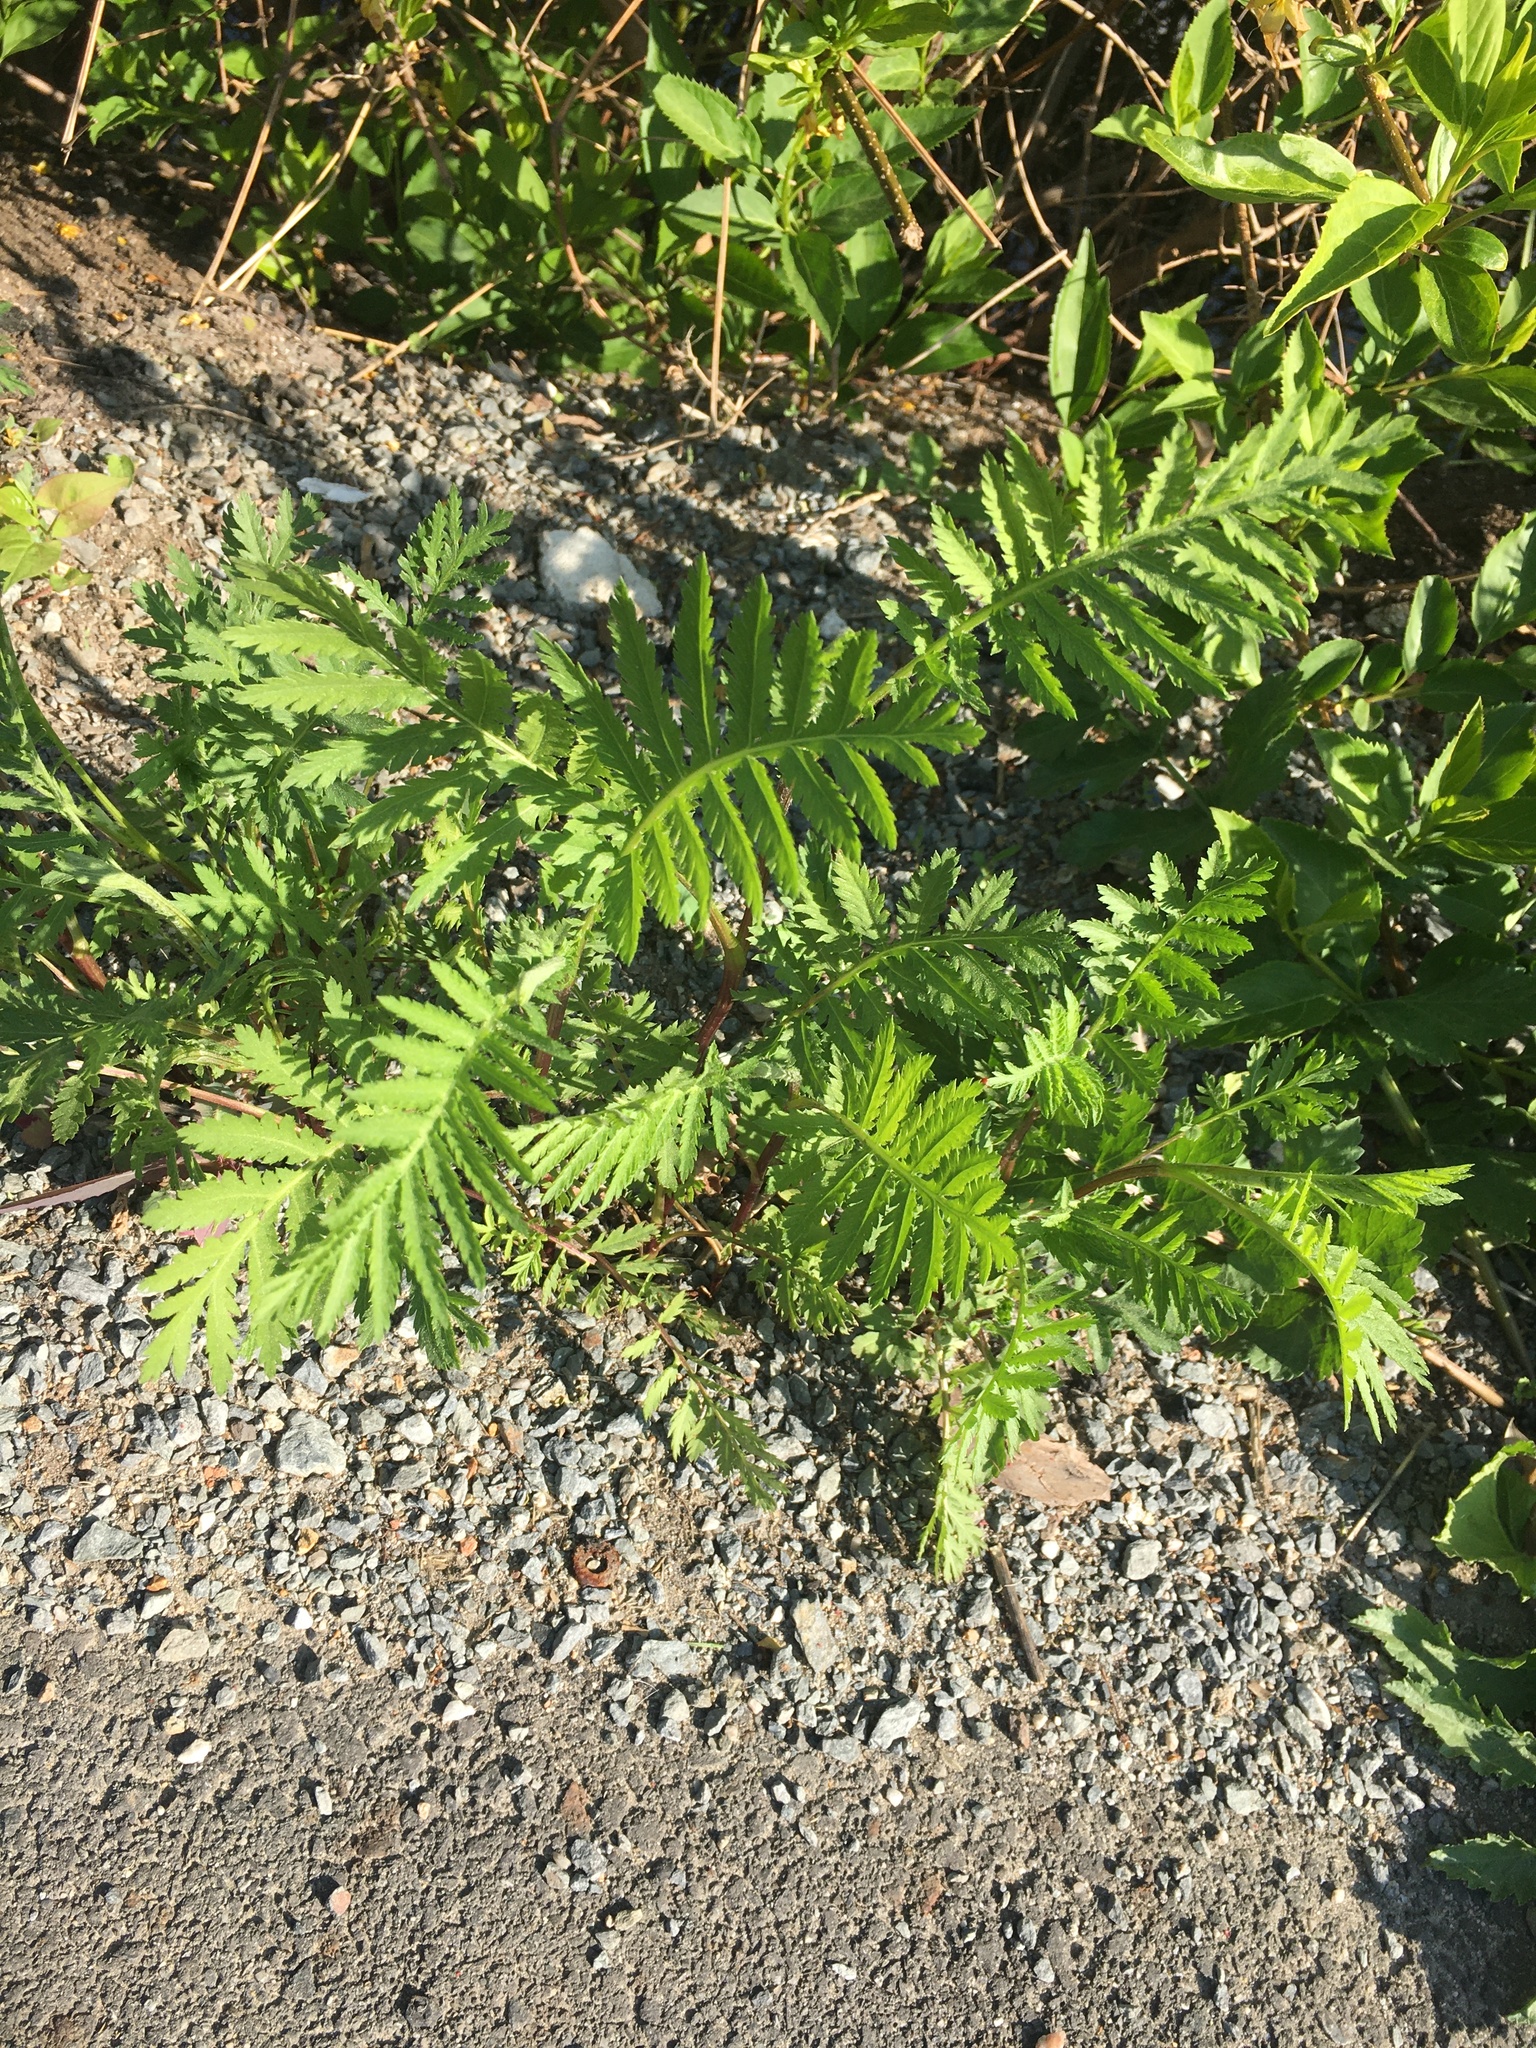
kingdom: Plantae
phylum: Tracheophyta
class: Magnoliopsida
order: Asterales
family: Asteraceae
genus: Tanacetum
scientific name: Tanacetum vulgare
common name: Common tansy
